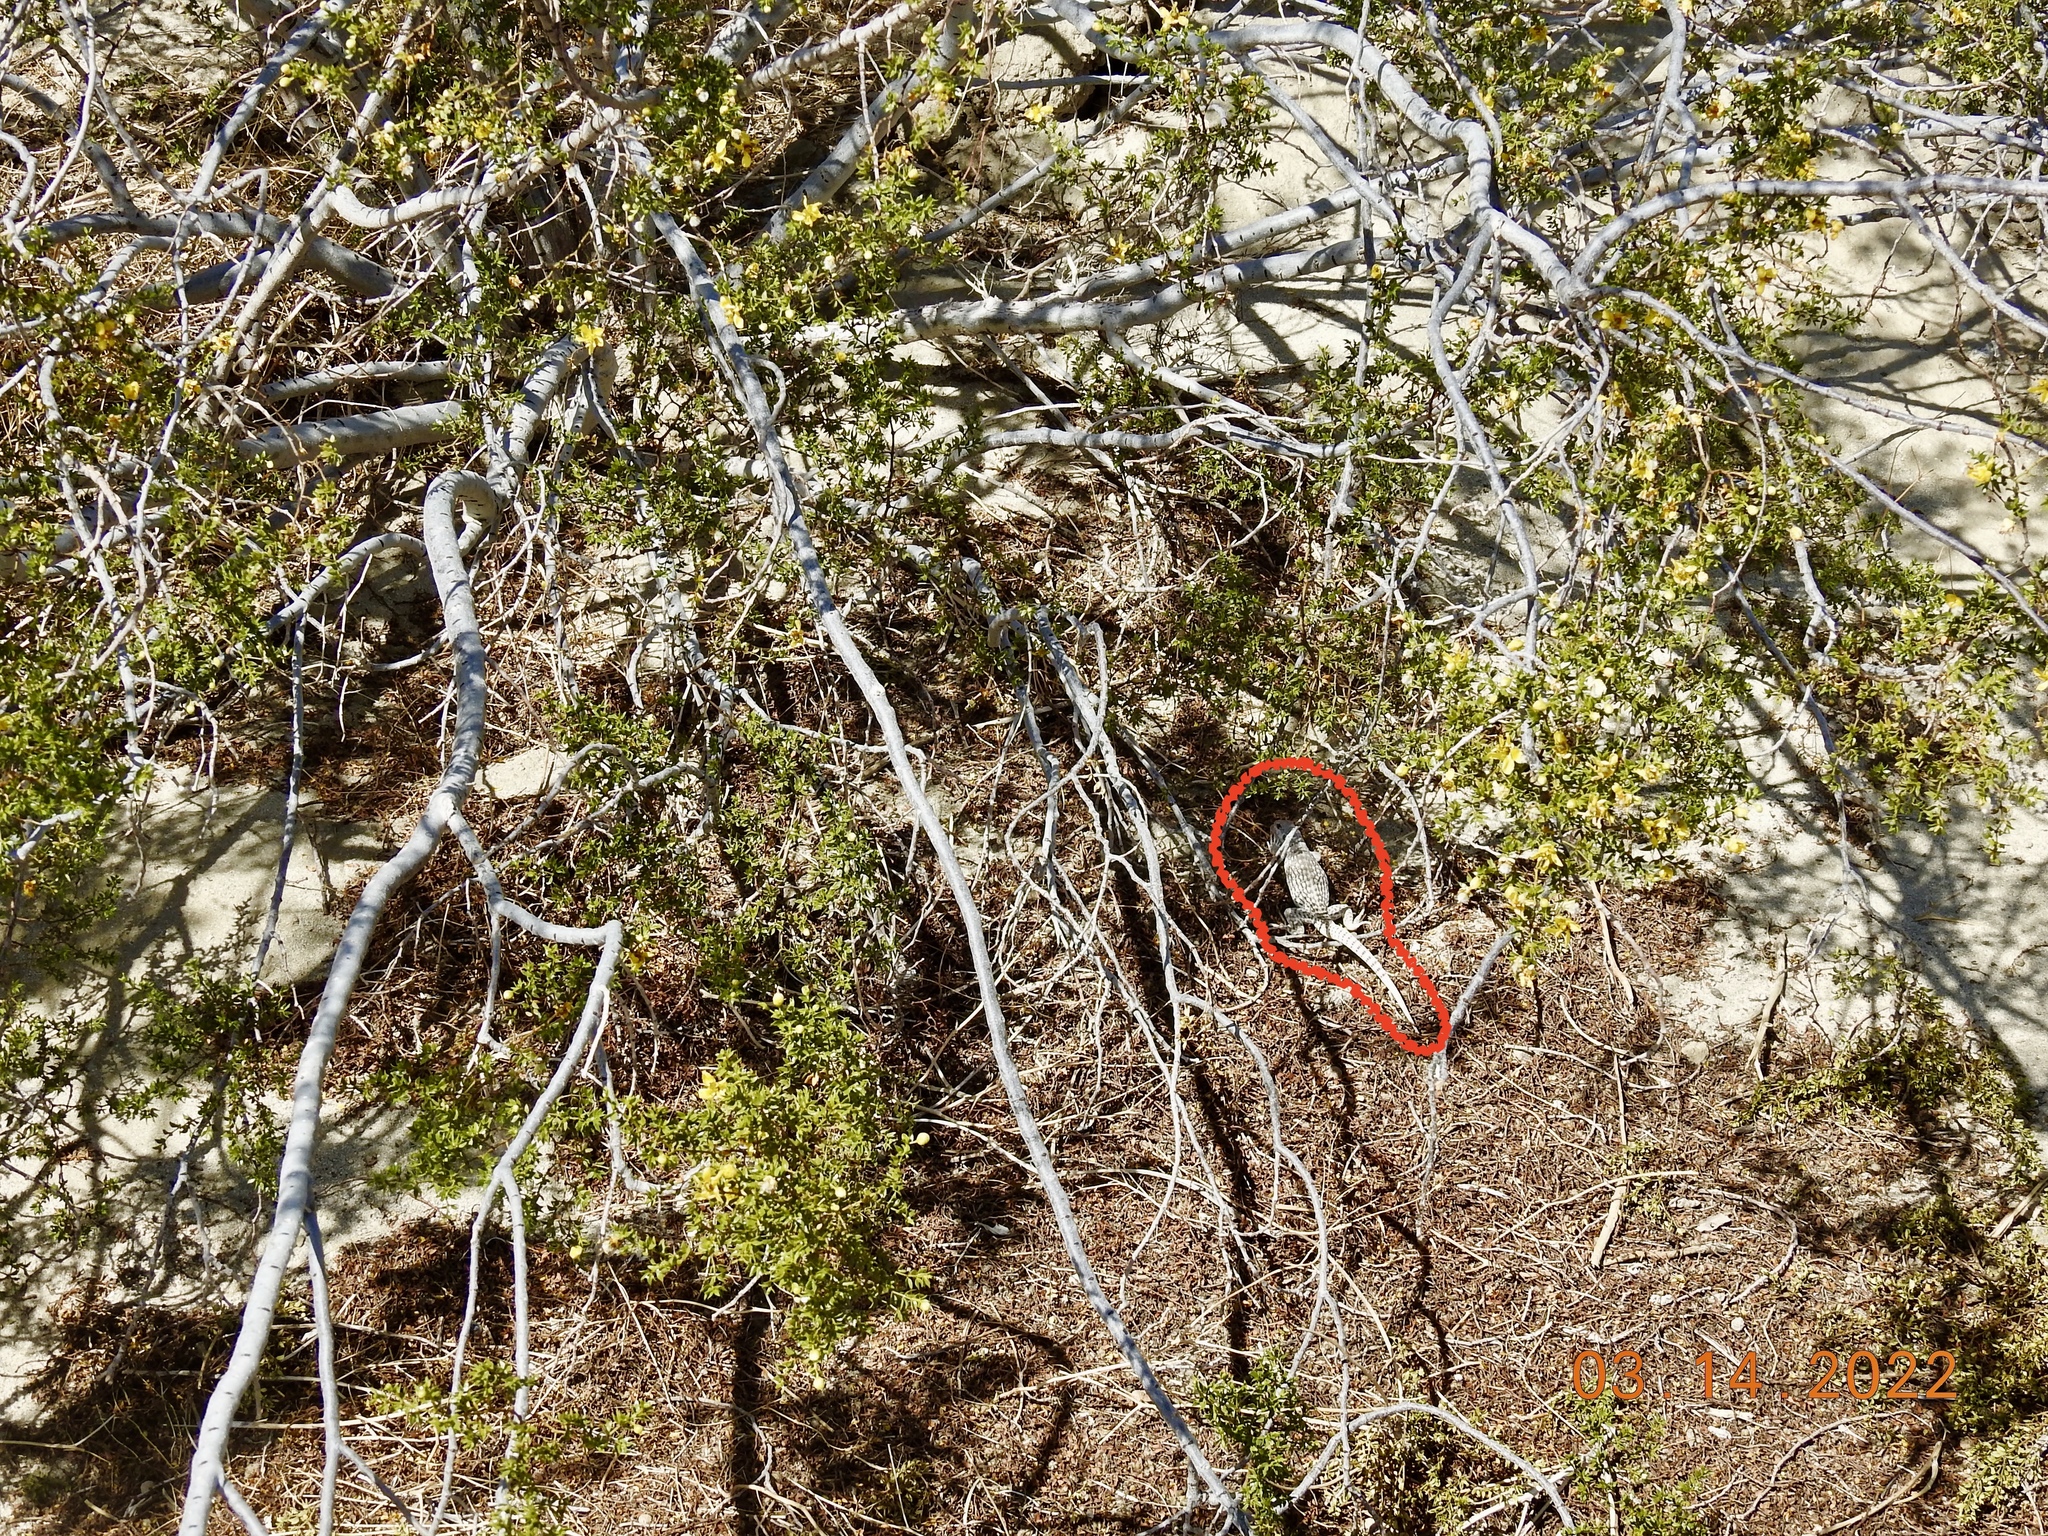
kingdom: Animalia
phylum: Chordata
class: Squamata
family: Iguanidae
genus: Dipsosaurus
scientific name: Dipsosaurus dorsalis
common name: Desert iguana
